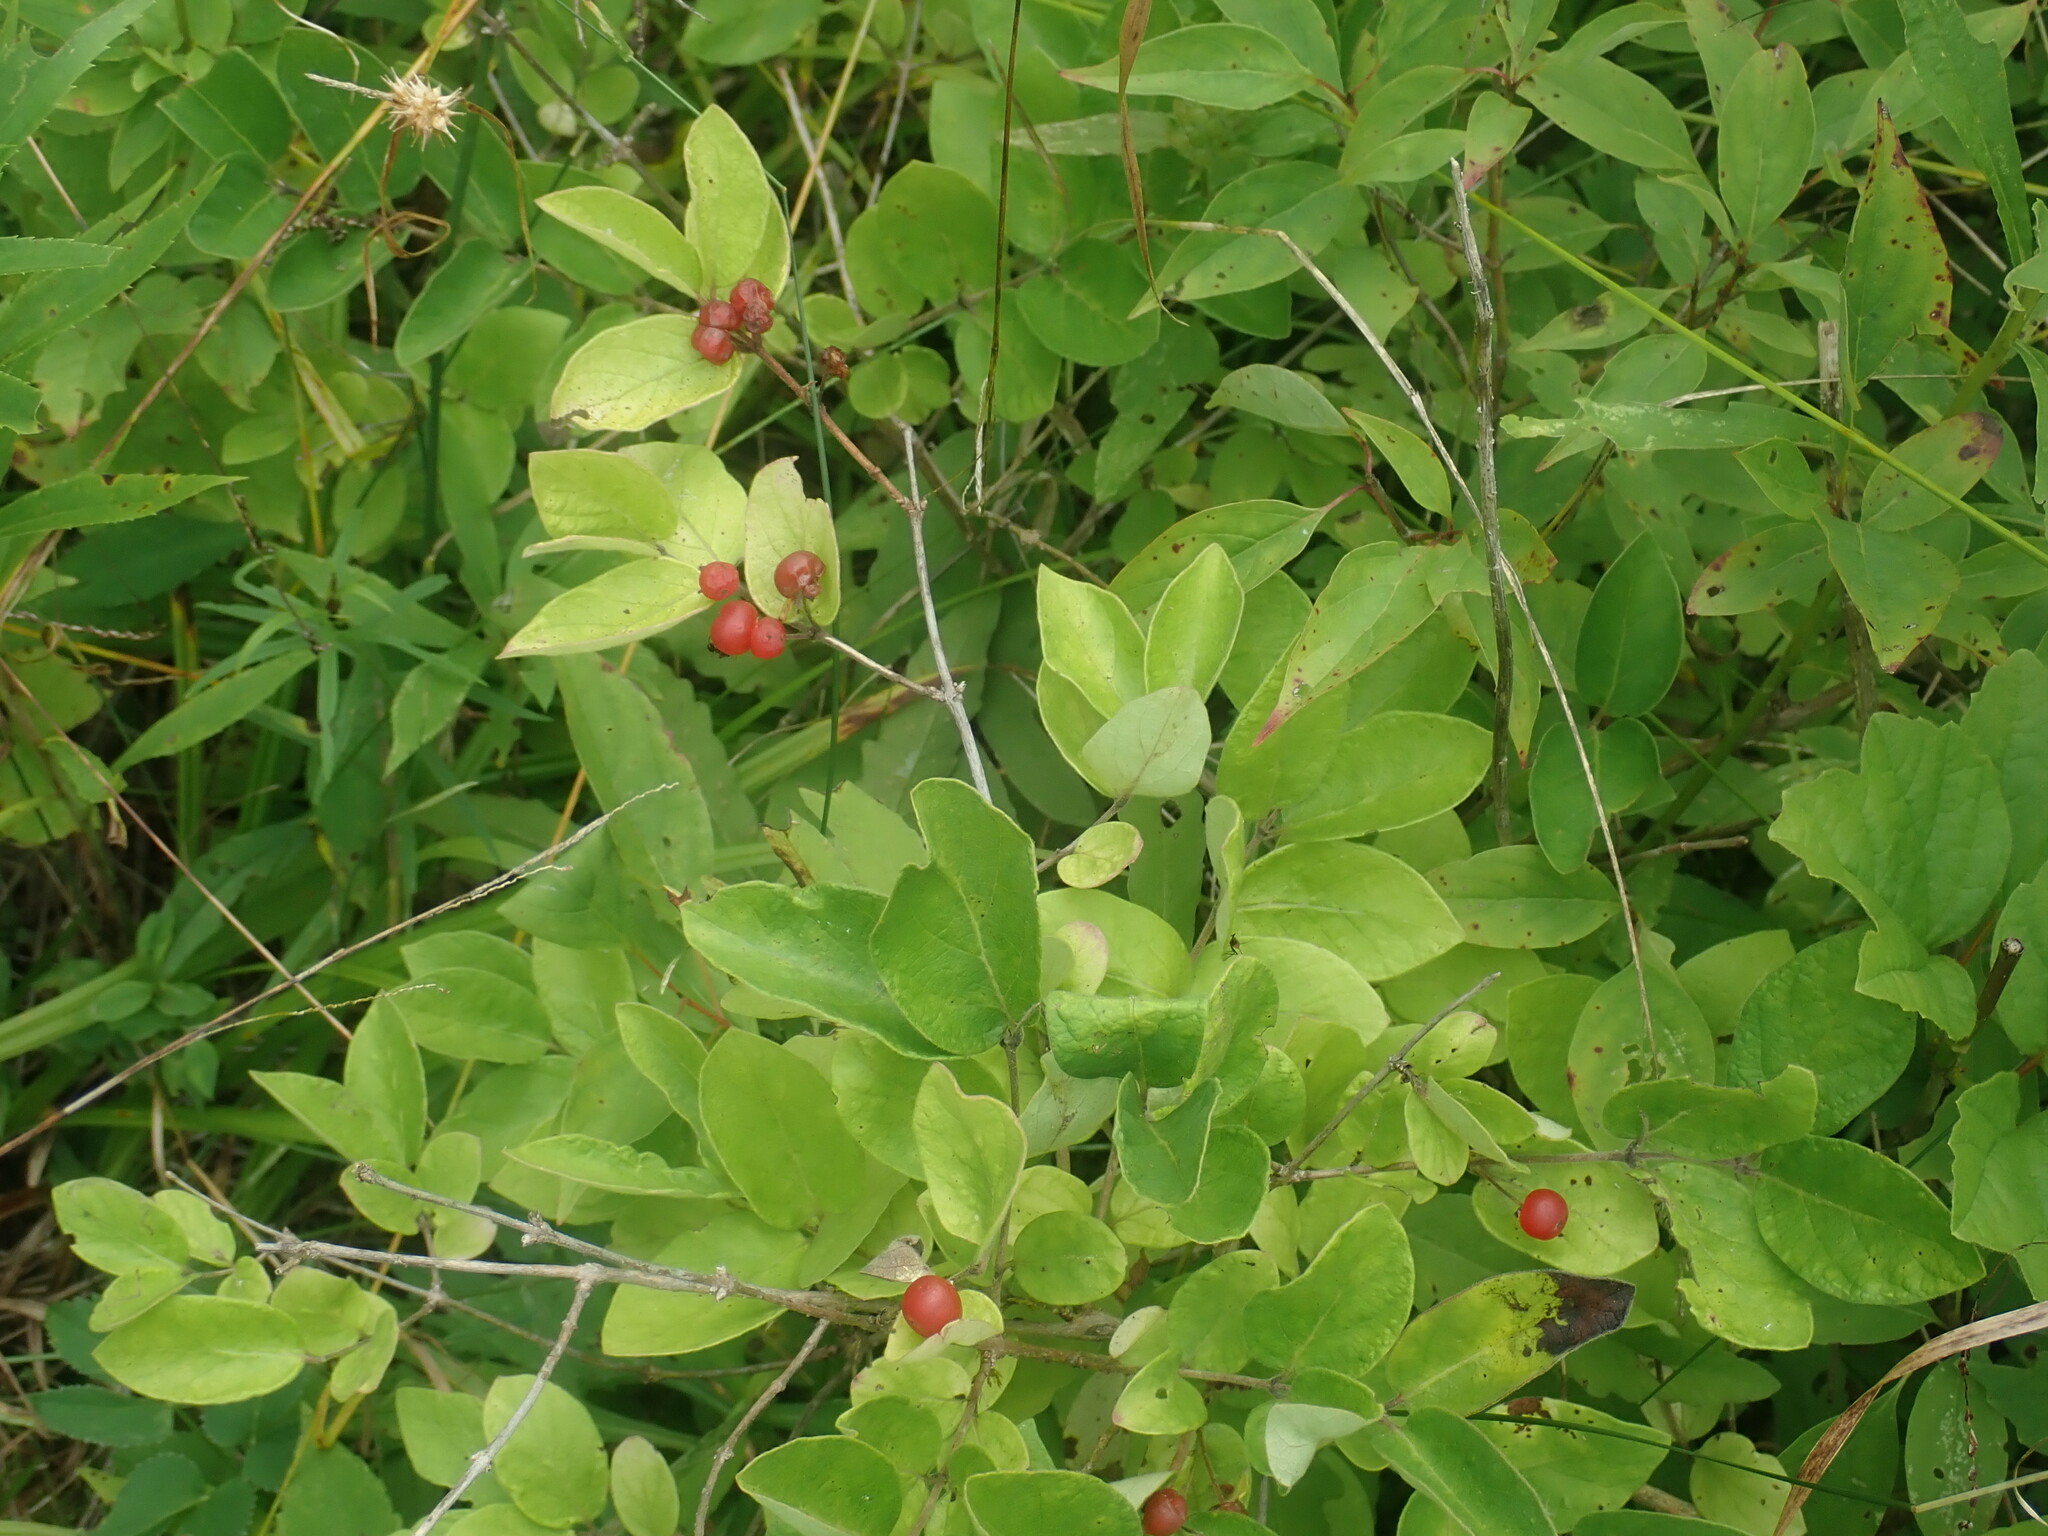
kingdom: Plantae
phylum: Tracheophyta
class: Magnoliopsida
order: Dipsacales
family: Caprifoliaceae
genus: Lonicera
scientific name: Lonicera
